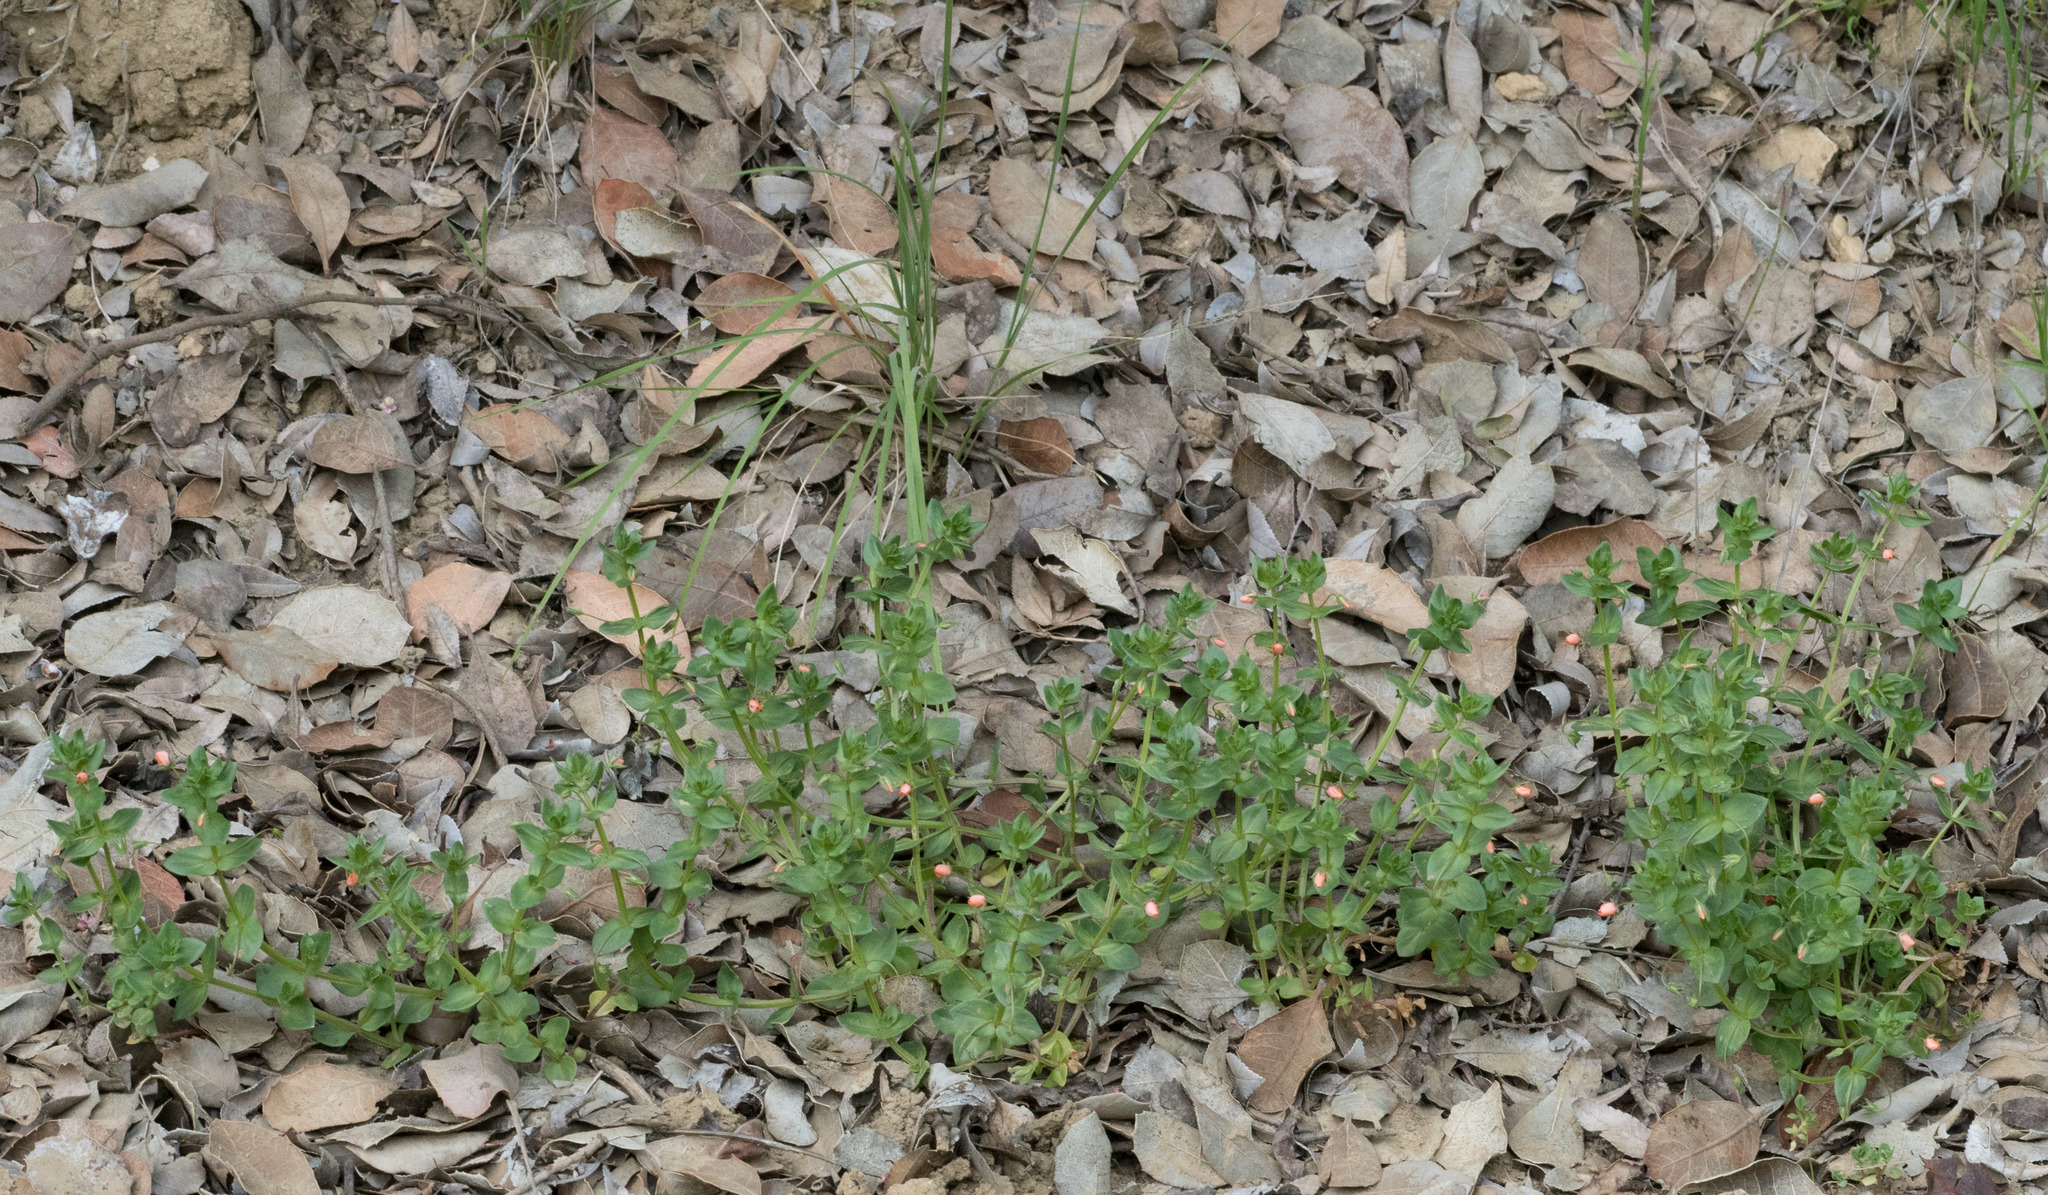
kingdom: Plantae
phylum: Tracheophyta
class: Magnoliopsida
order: Ericales
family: Primulaceae
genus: Lysimachia
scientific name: Lysimachia arvensis
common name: Scarlet pimpernel
